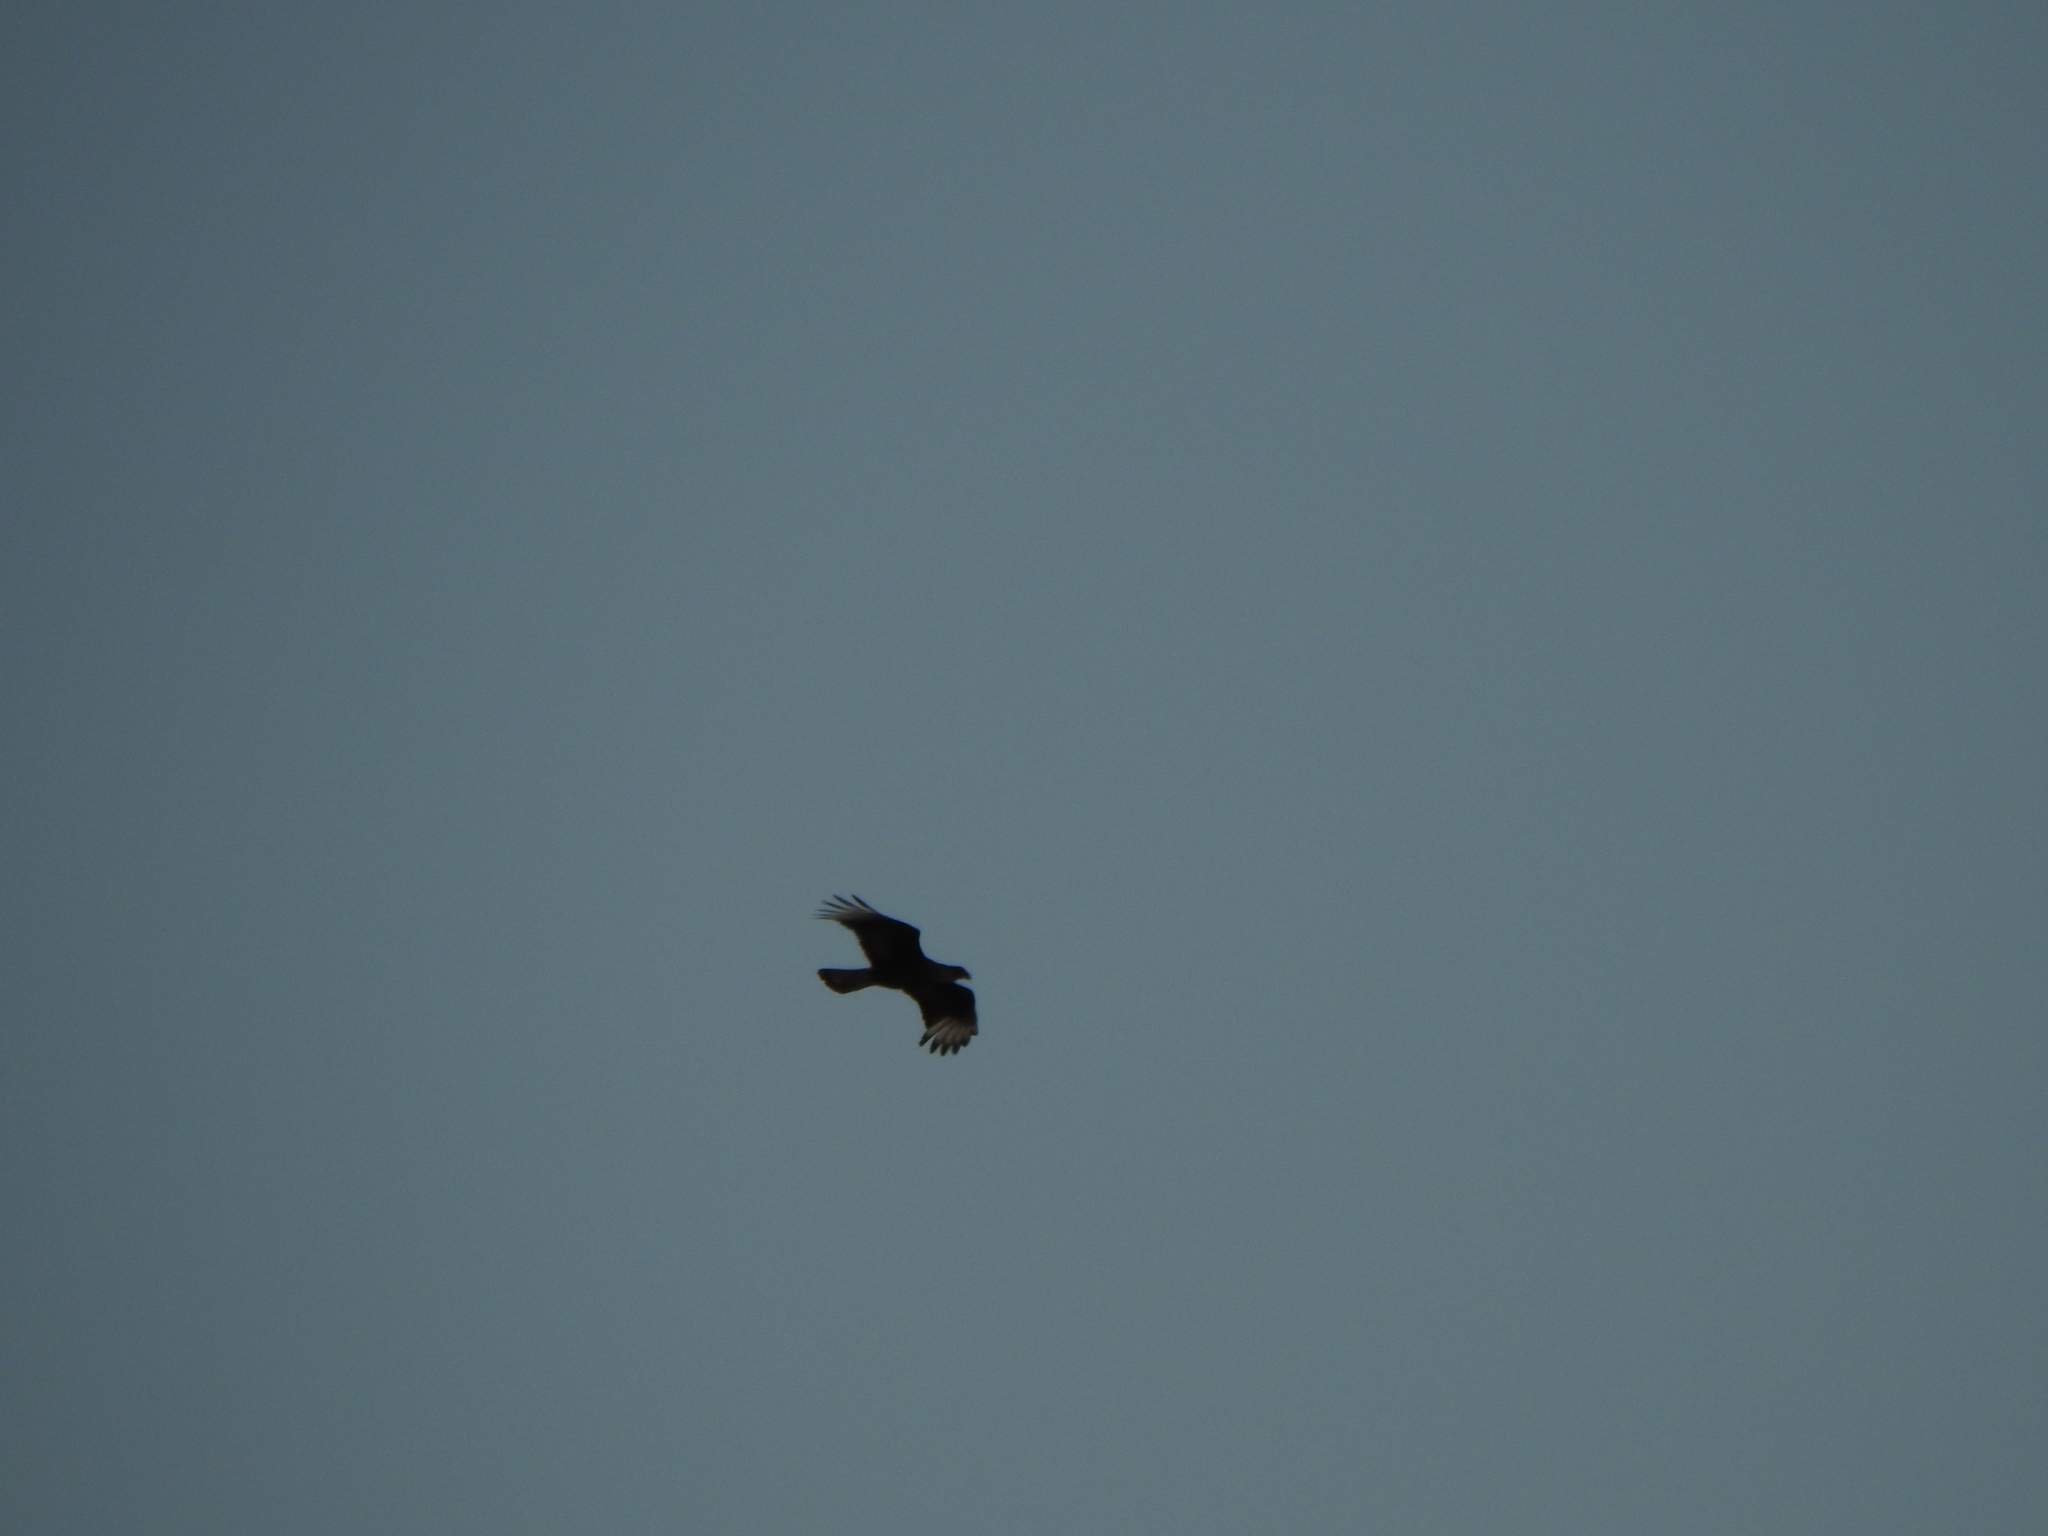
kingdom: Animalia
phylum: Chordata
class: Aves
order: Falconiformes
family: Falconidae
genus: Caracara
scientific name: Caracara plancus
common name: Southern caracara
